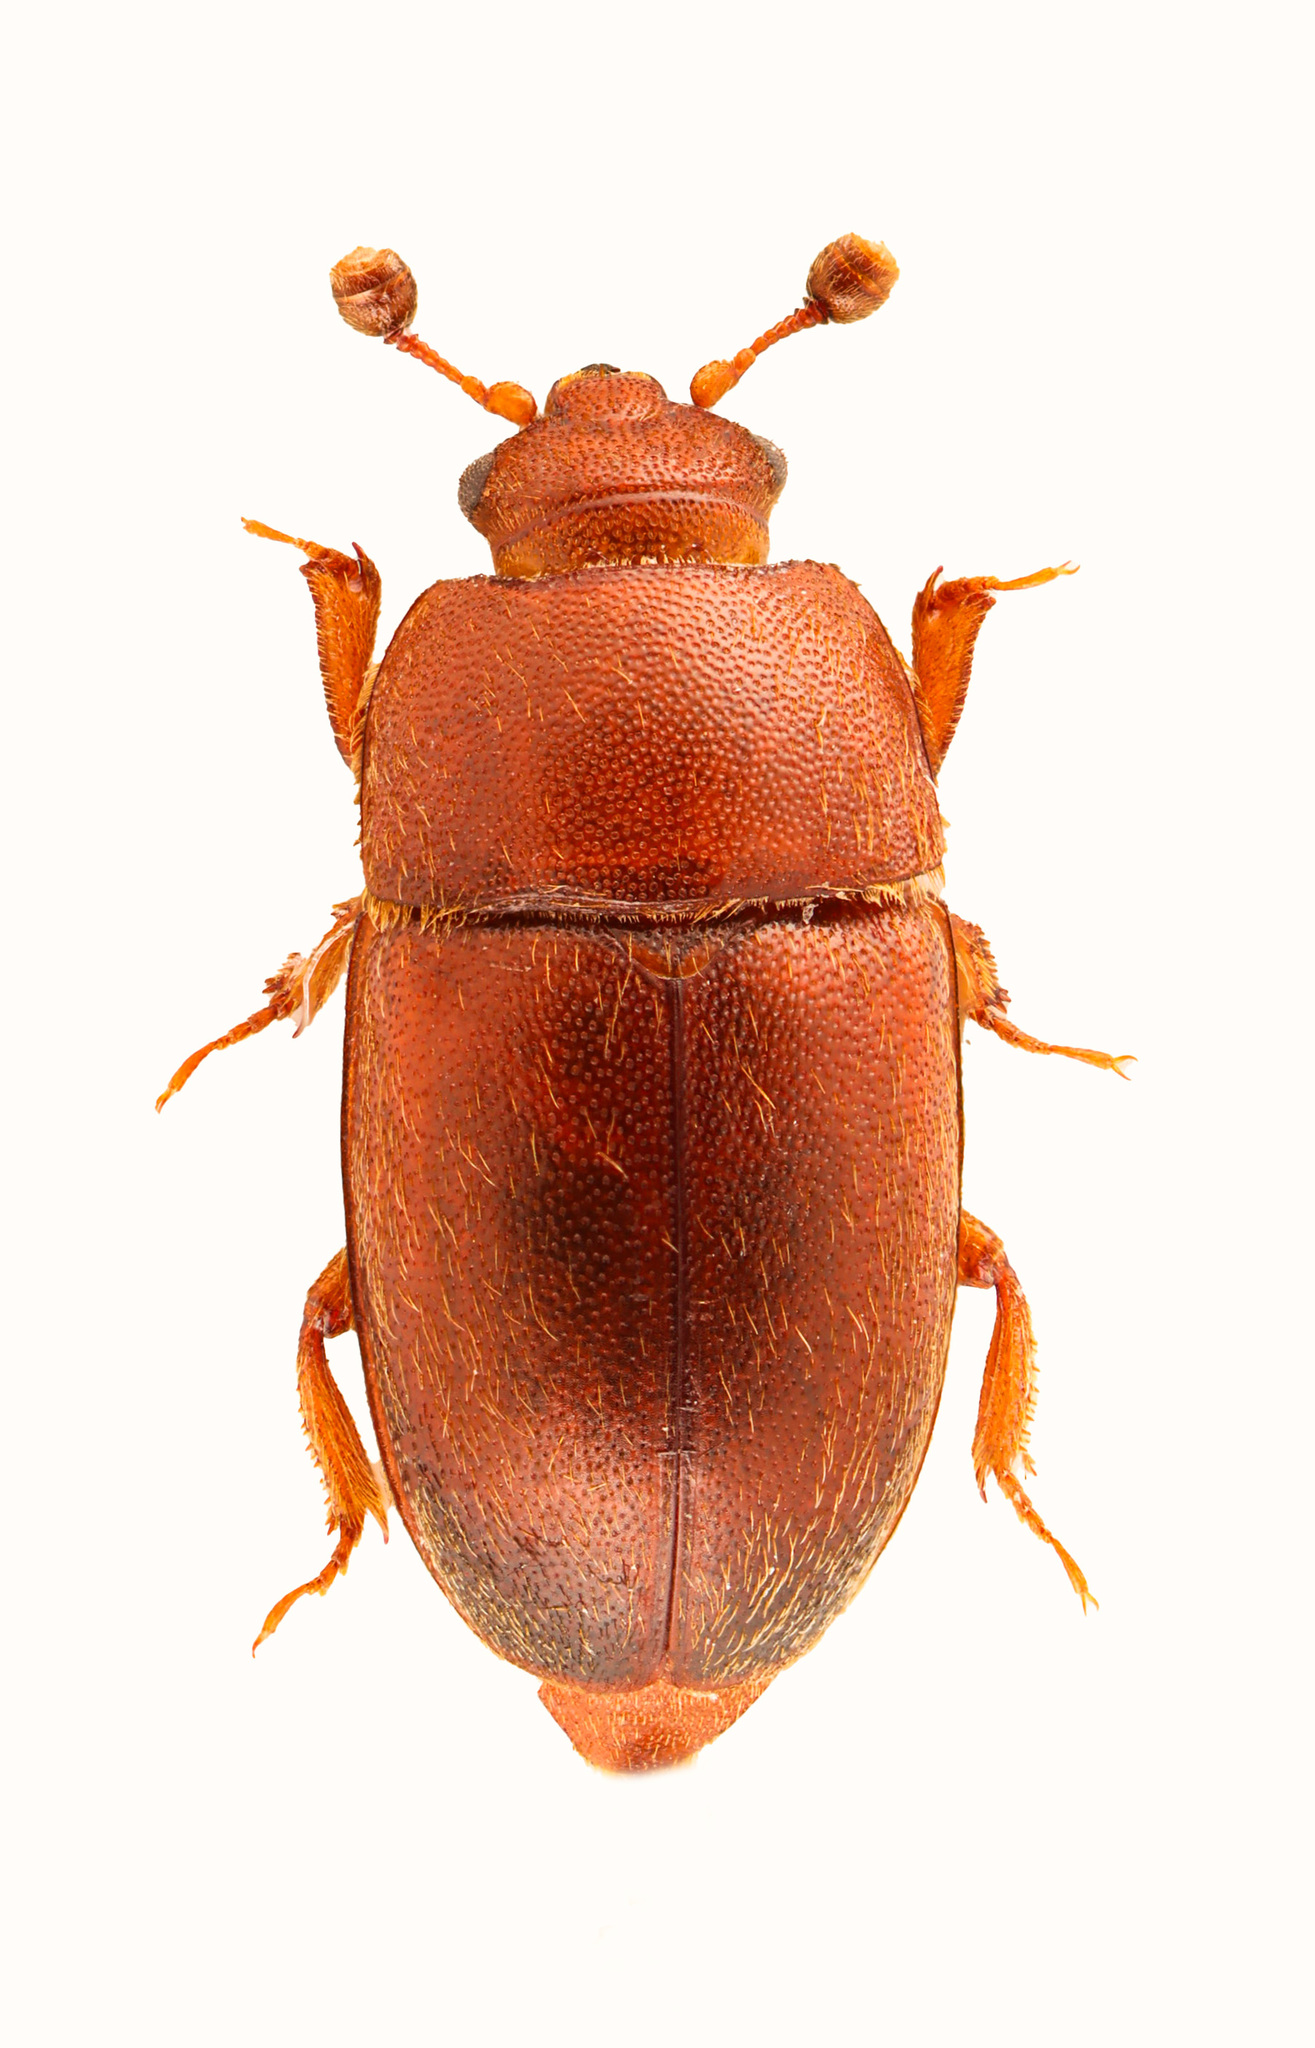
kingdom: Animalia
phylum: Arthropoda
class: Insecta
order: Coleoptera
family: Nitidulidae
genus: Thalycra
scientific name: Thalycra concolor
